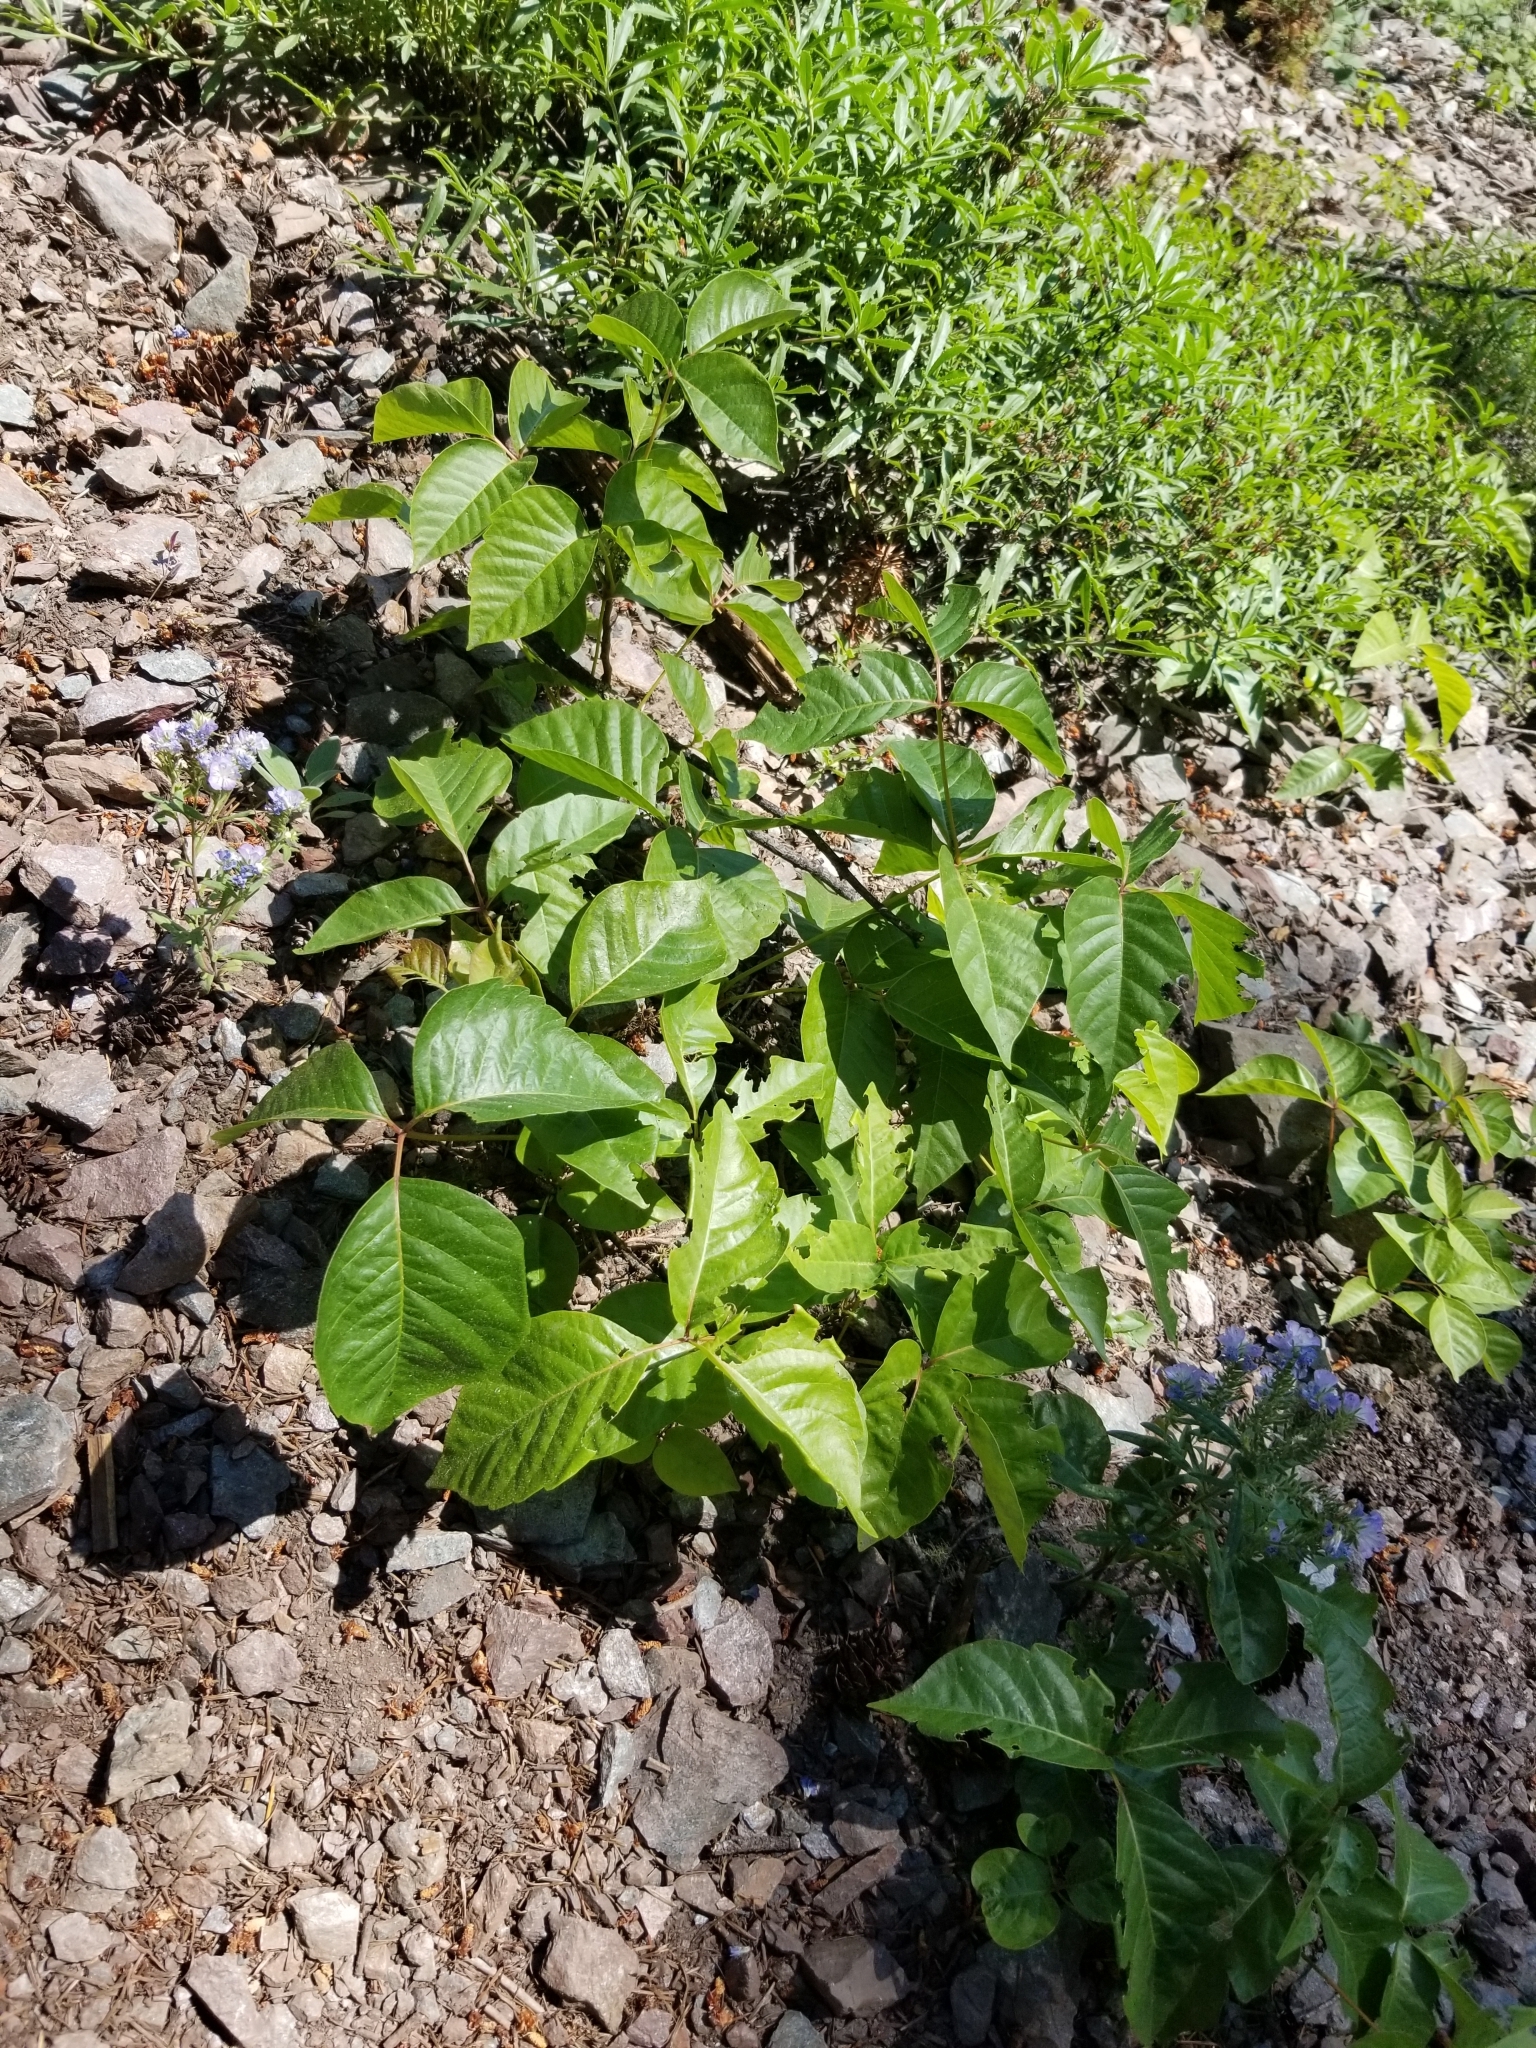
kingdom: Plantae
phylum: Tracheophyta
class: Magnoliopsida
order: Sapindales
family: Anacardiaceae
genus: Toxicodendron
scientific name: Toxicodendron rydbergii
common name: Rydberg's poison-ivy
